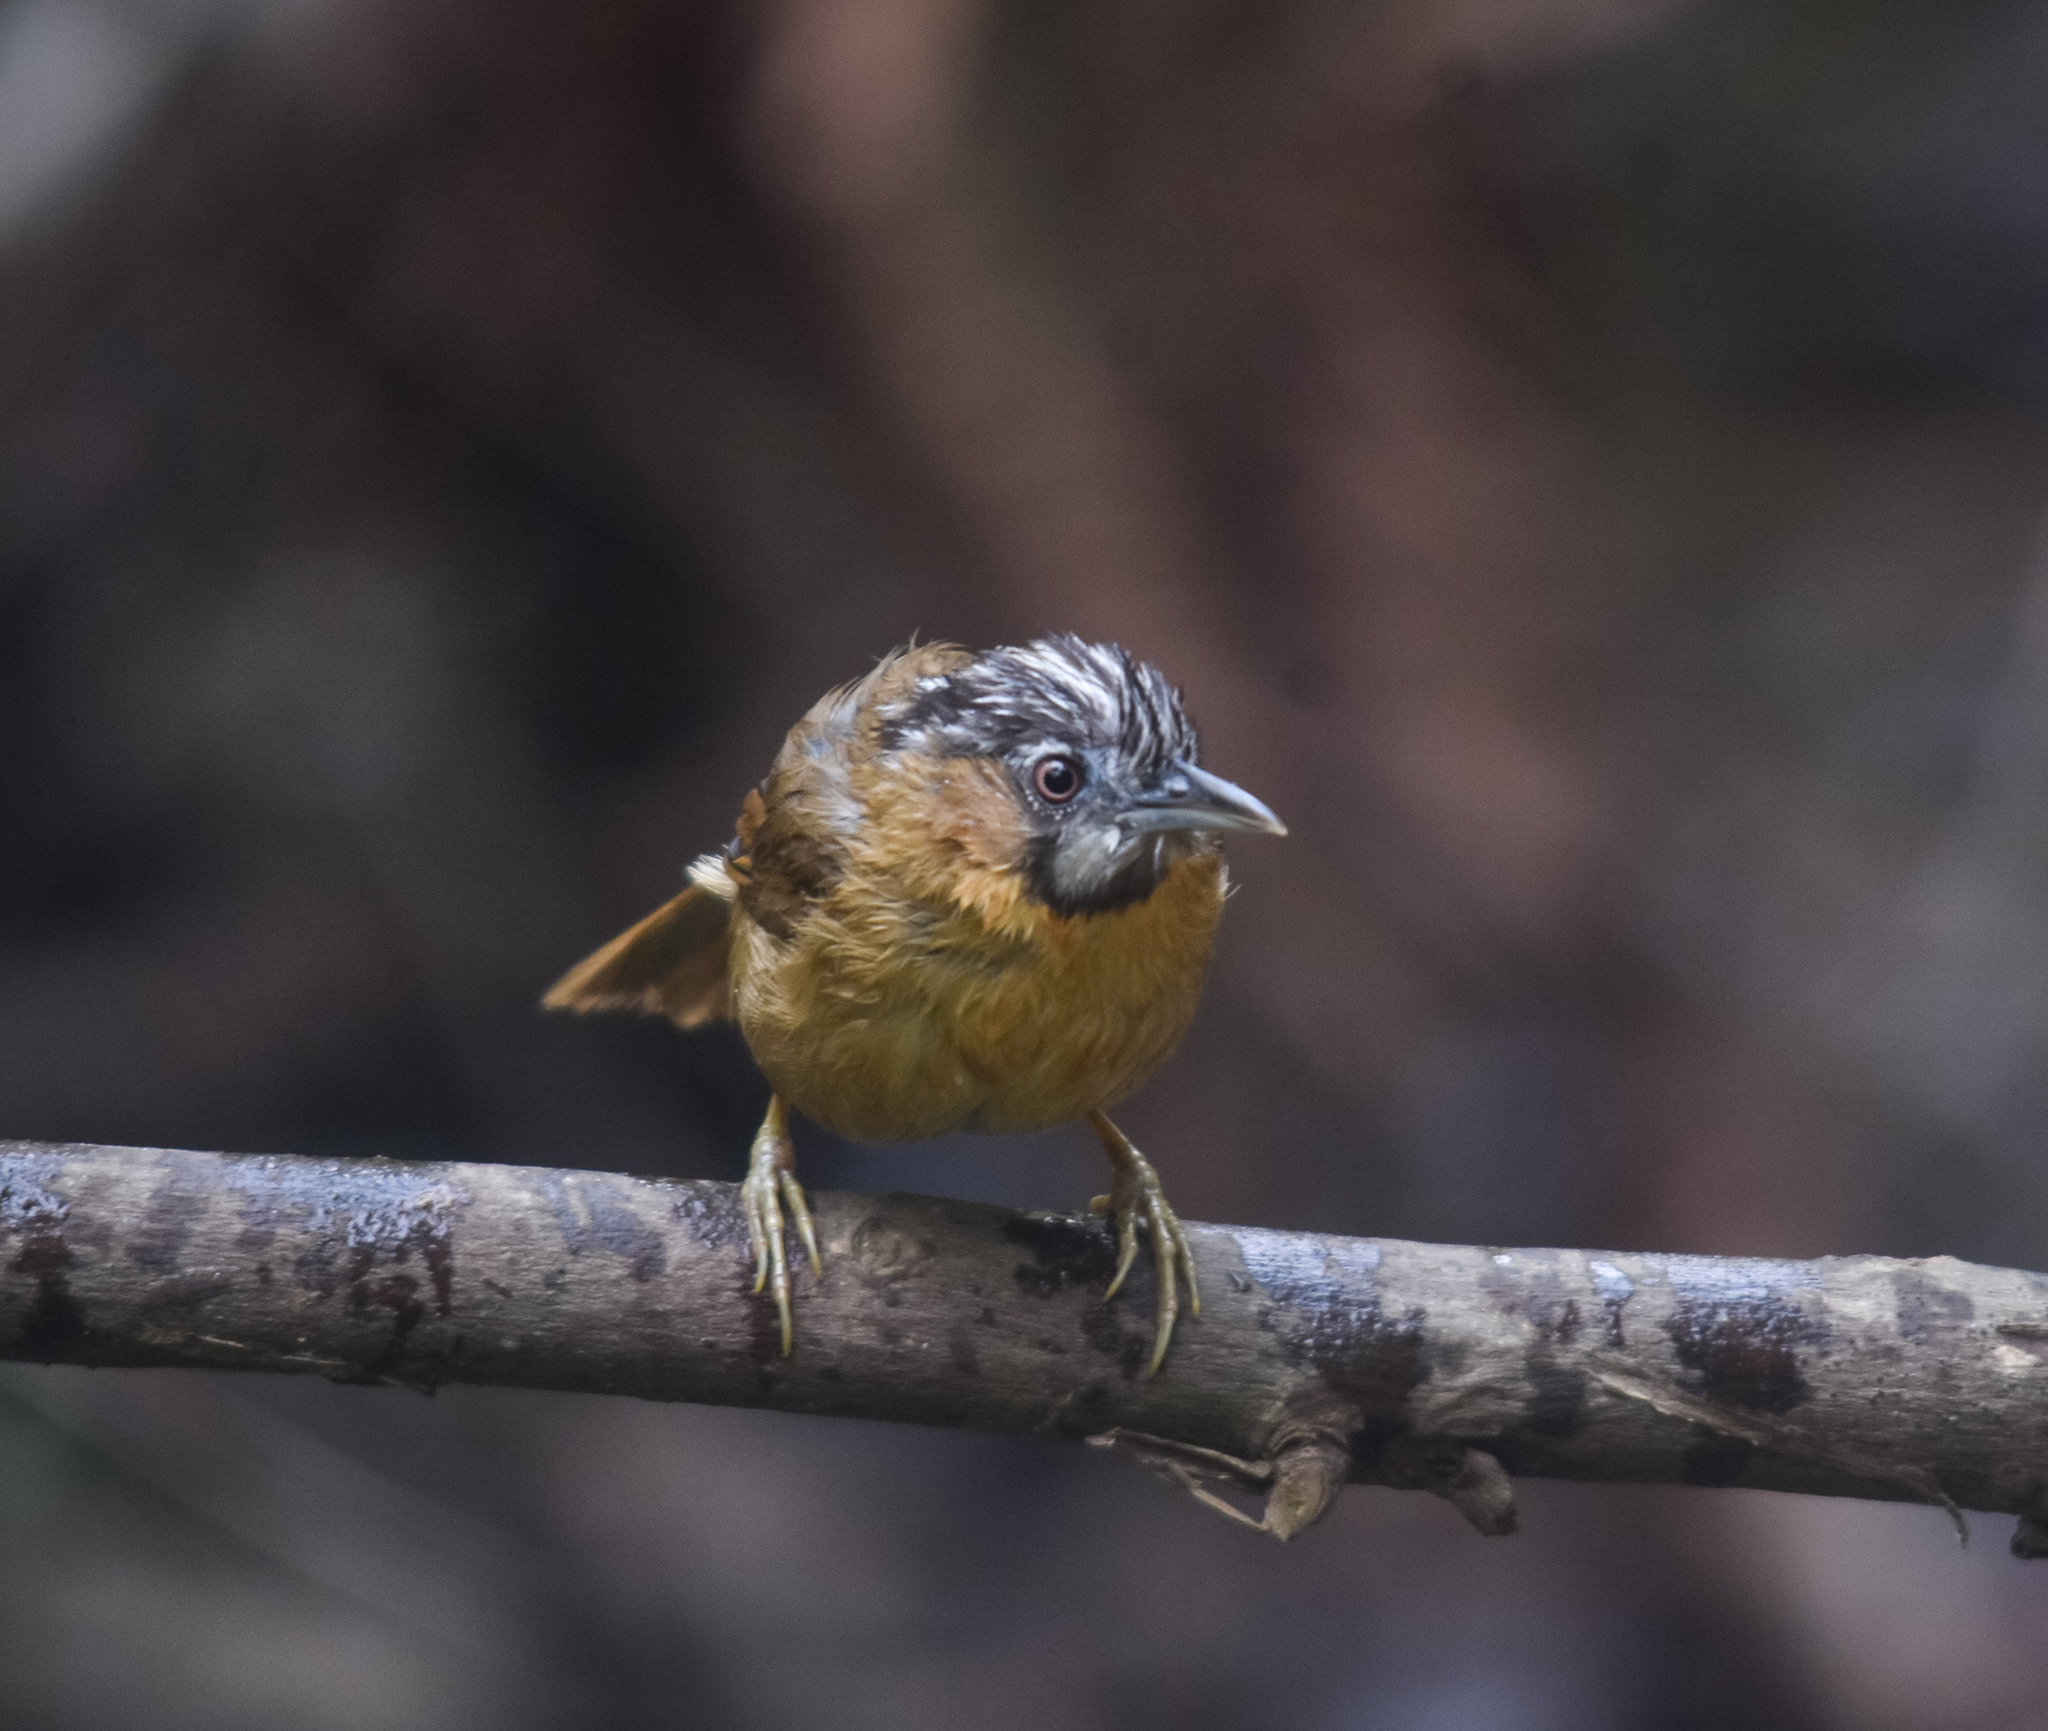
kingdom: Animalia
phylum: Chordata
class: Aves
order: Passeriformes
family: Timaliidae
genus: Stachyris
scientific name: Stachyris nigriceps
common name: Grey-throated babbler
